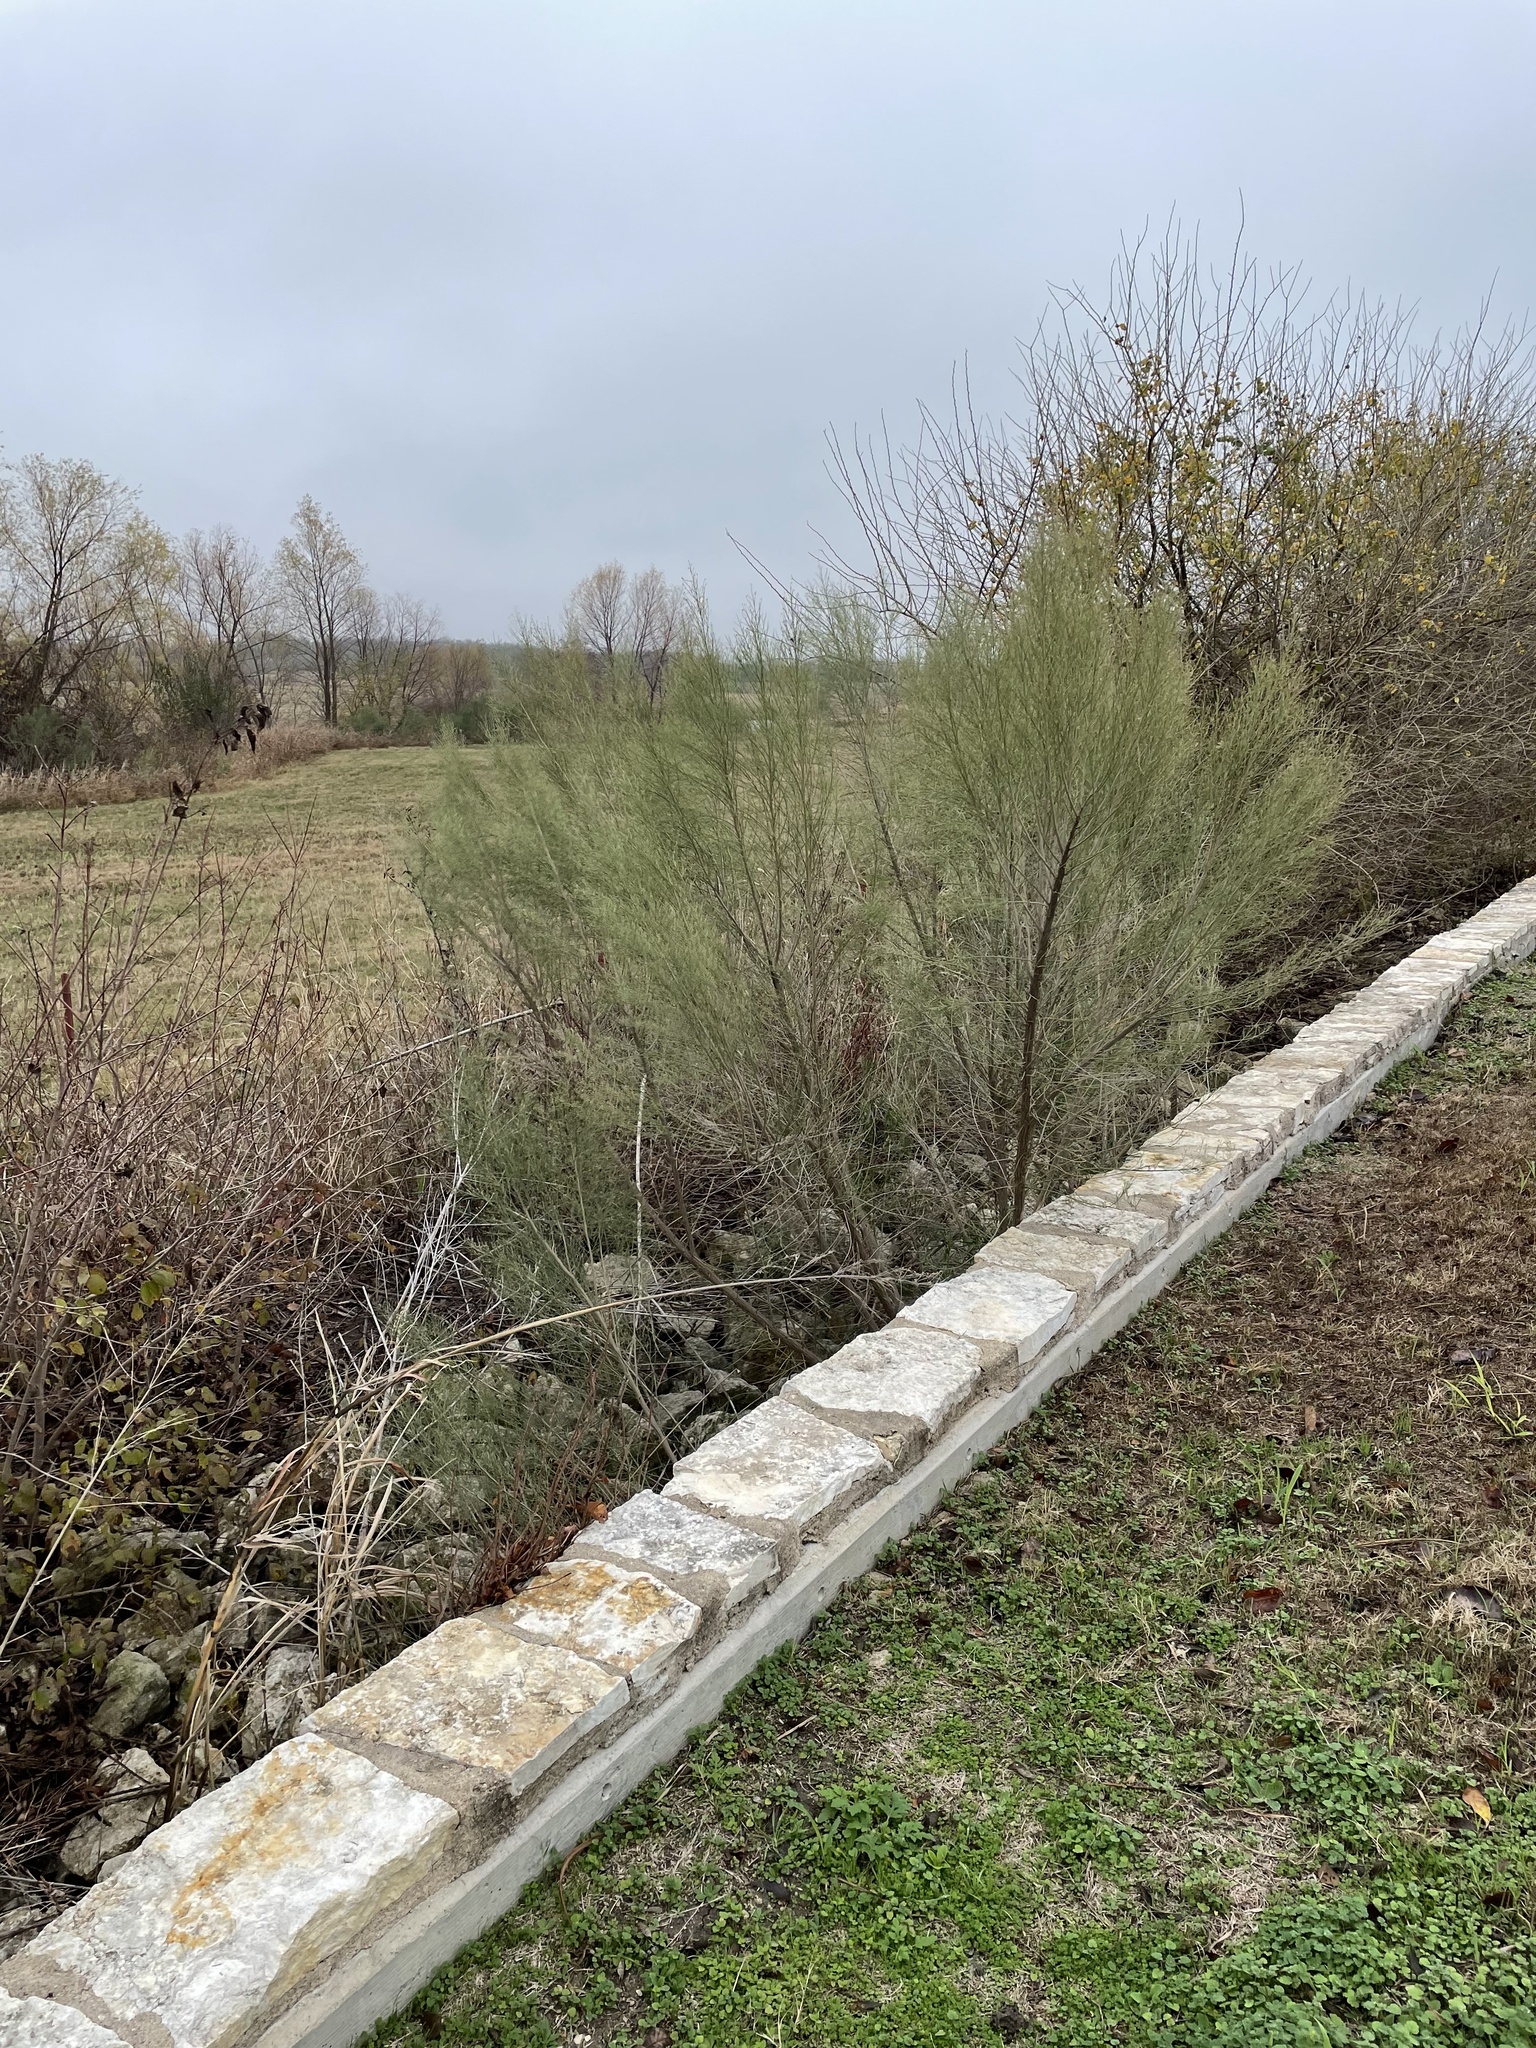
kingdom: Plantae
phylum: Tracheophyta
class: Magnoliopsida
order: Asterales
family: Asteraceae
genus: Baccharis
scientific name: Baccharis neglecta
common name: Roosevelt-weed
